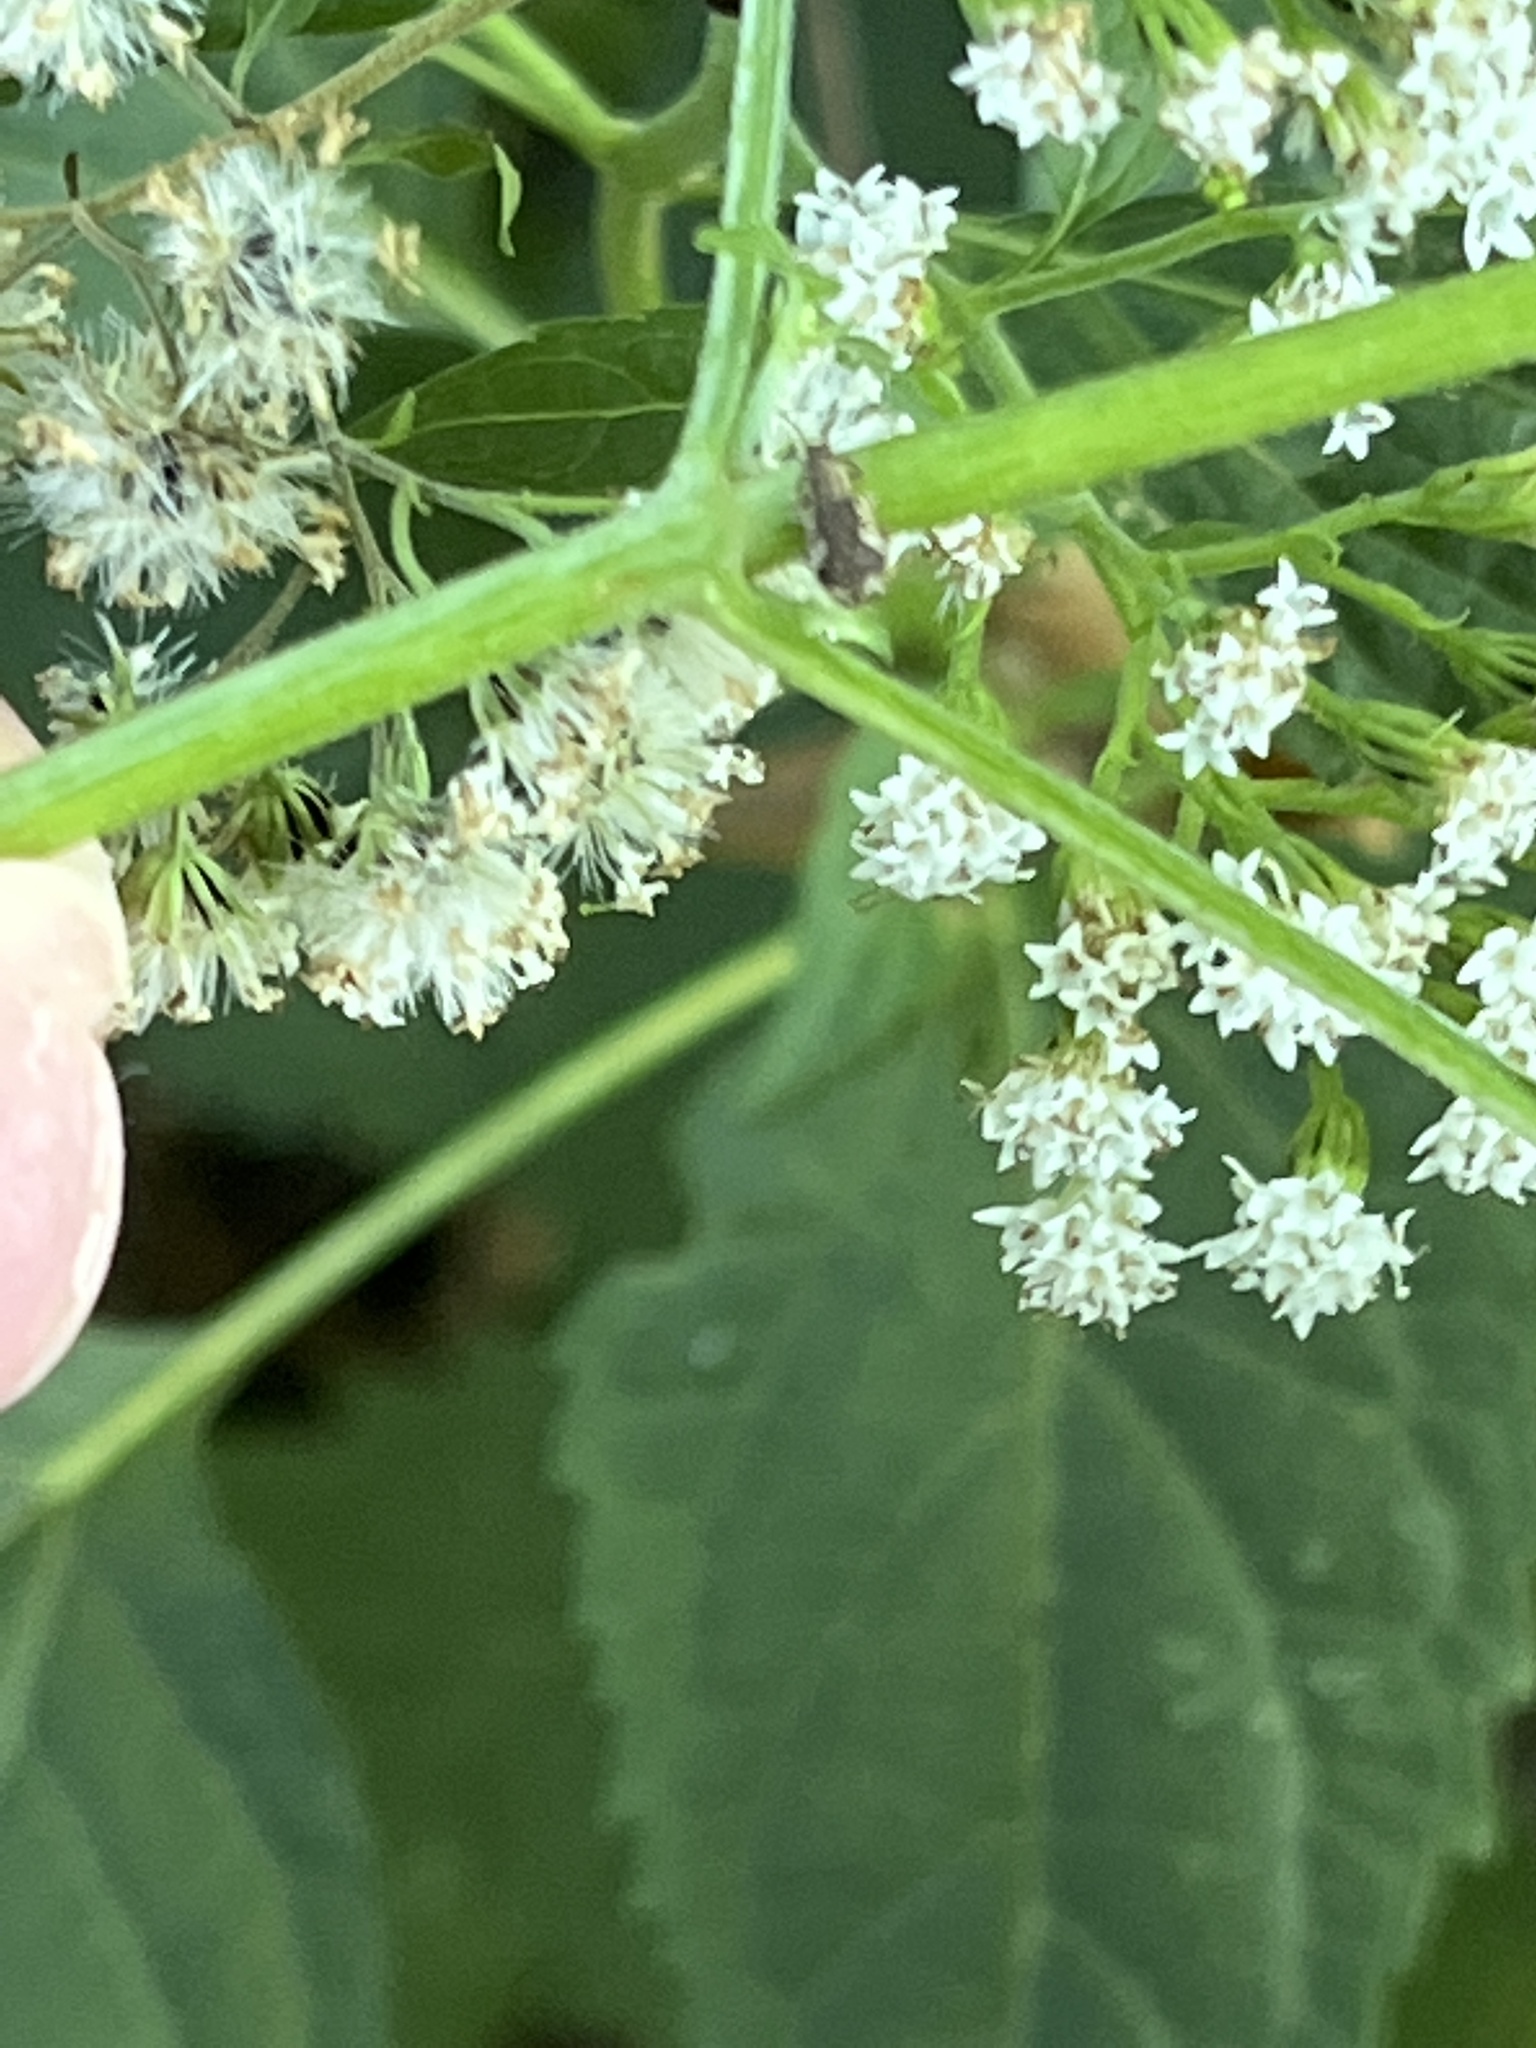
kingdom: Animalia
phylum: Arthropoda
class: Insecta
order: Coleoptera
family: Curculionidae
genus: Pseudoedophrys
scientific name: Pseudoedophrys hilleri
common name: Weevil
